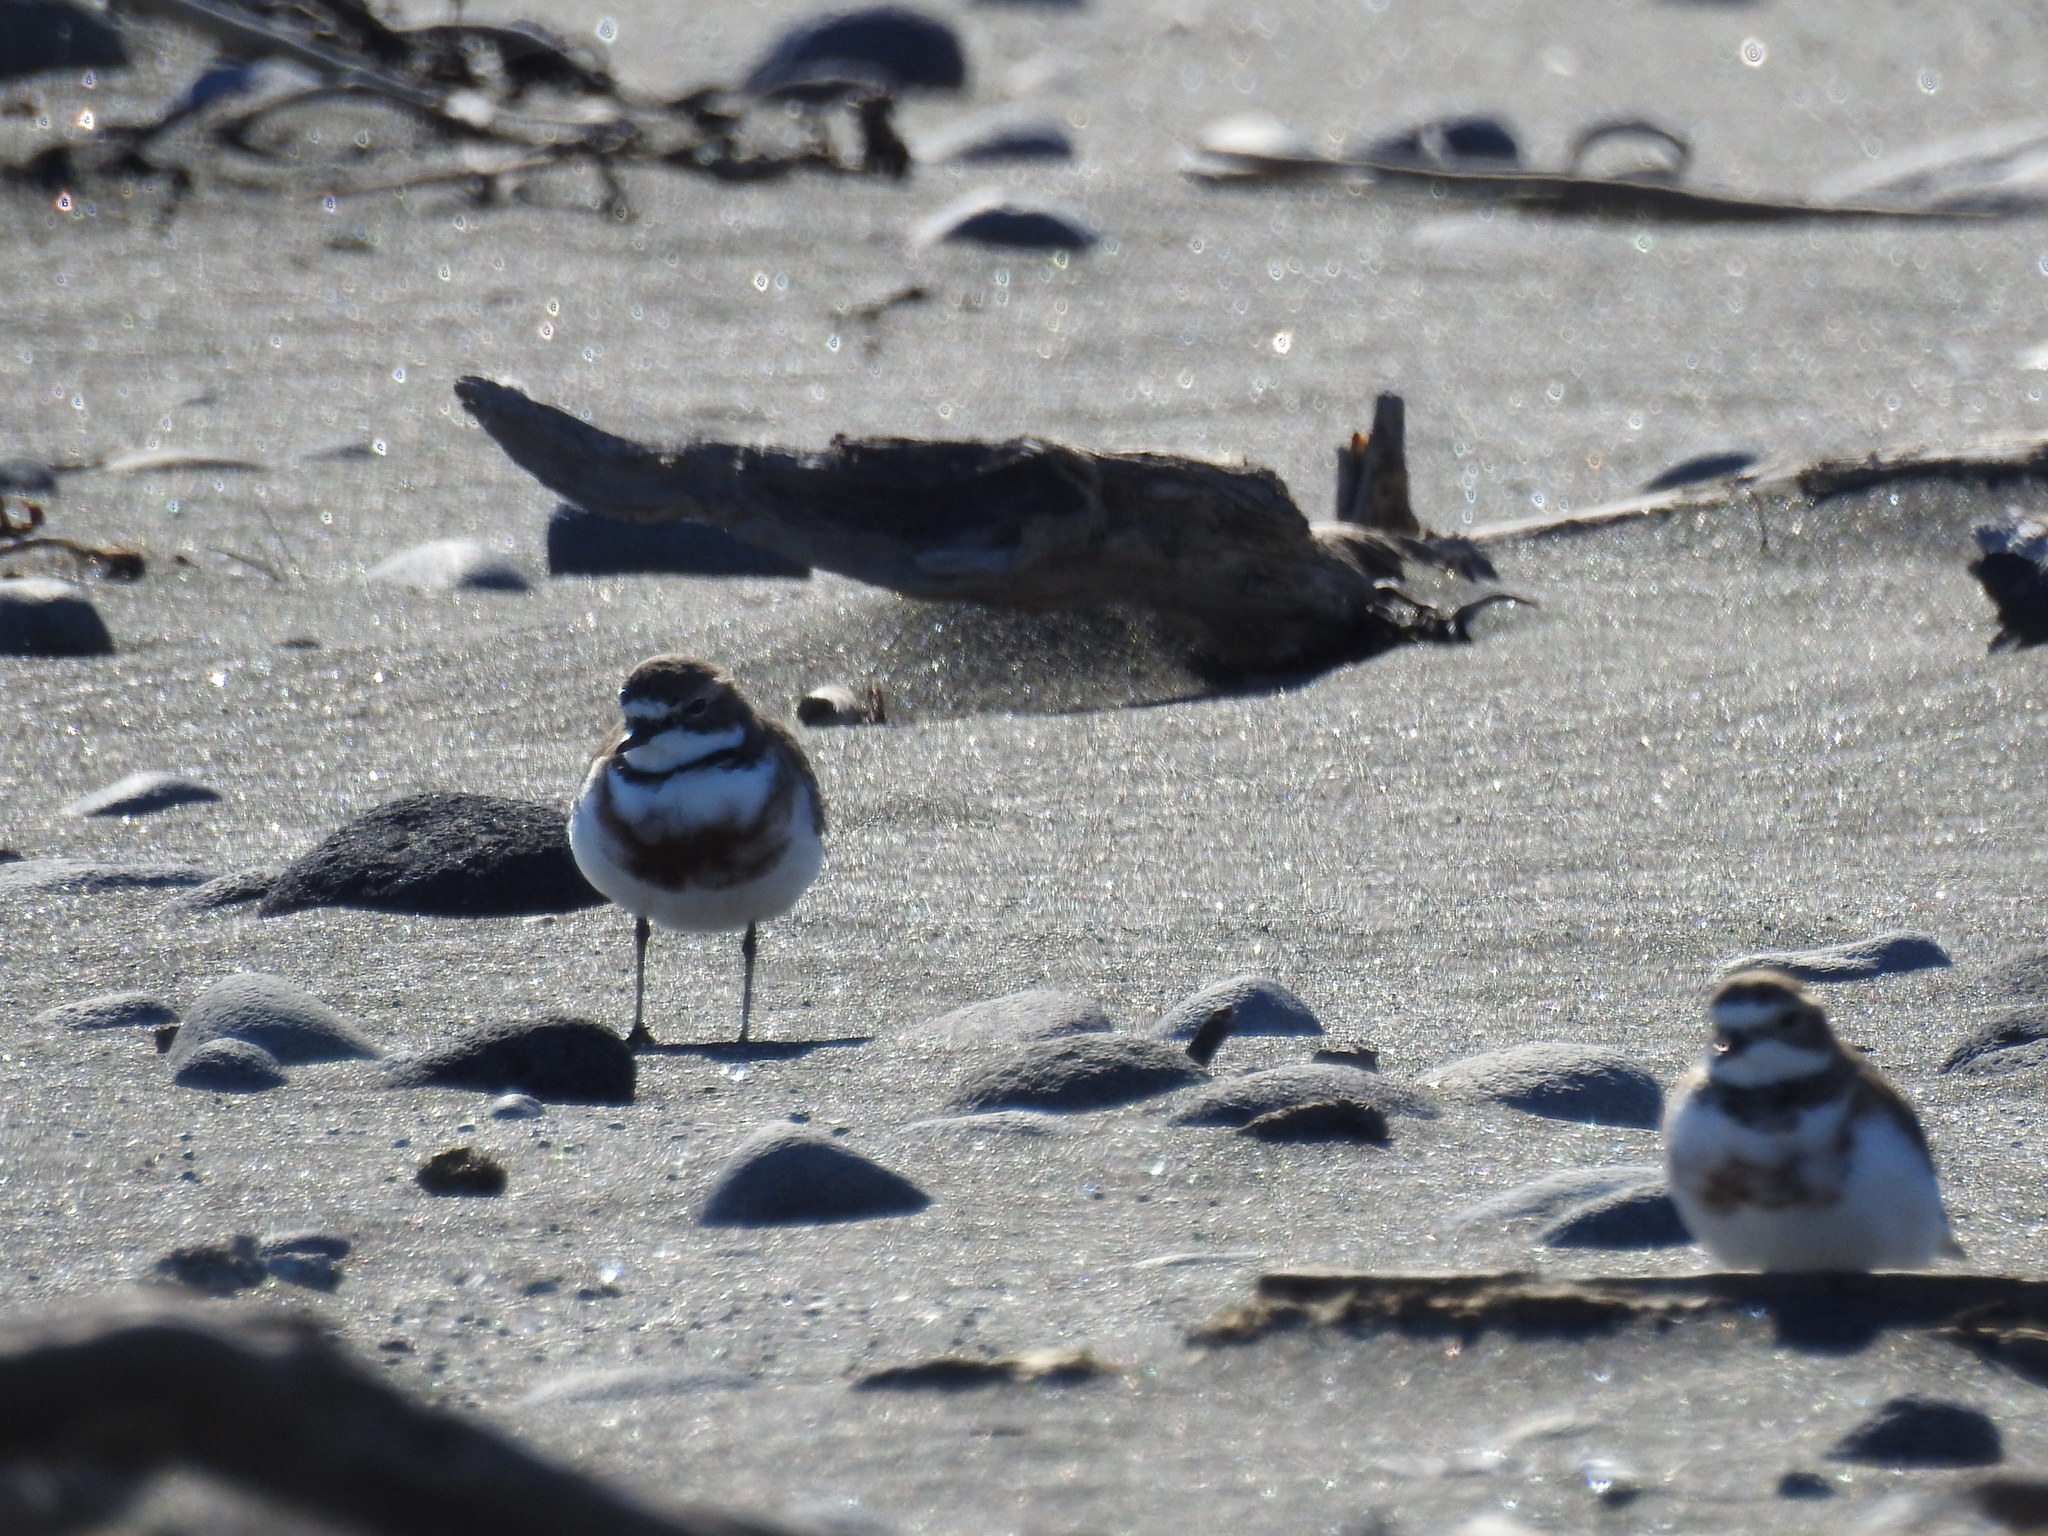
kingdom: Animalia
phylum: Chordata
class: Aves
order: Charadriiformes
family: Charadriidae
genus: Anarhynchus
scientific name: Anarhynchus
